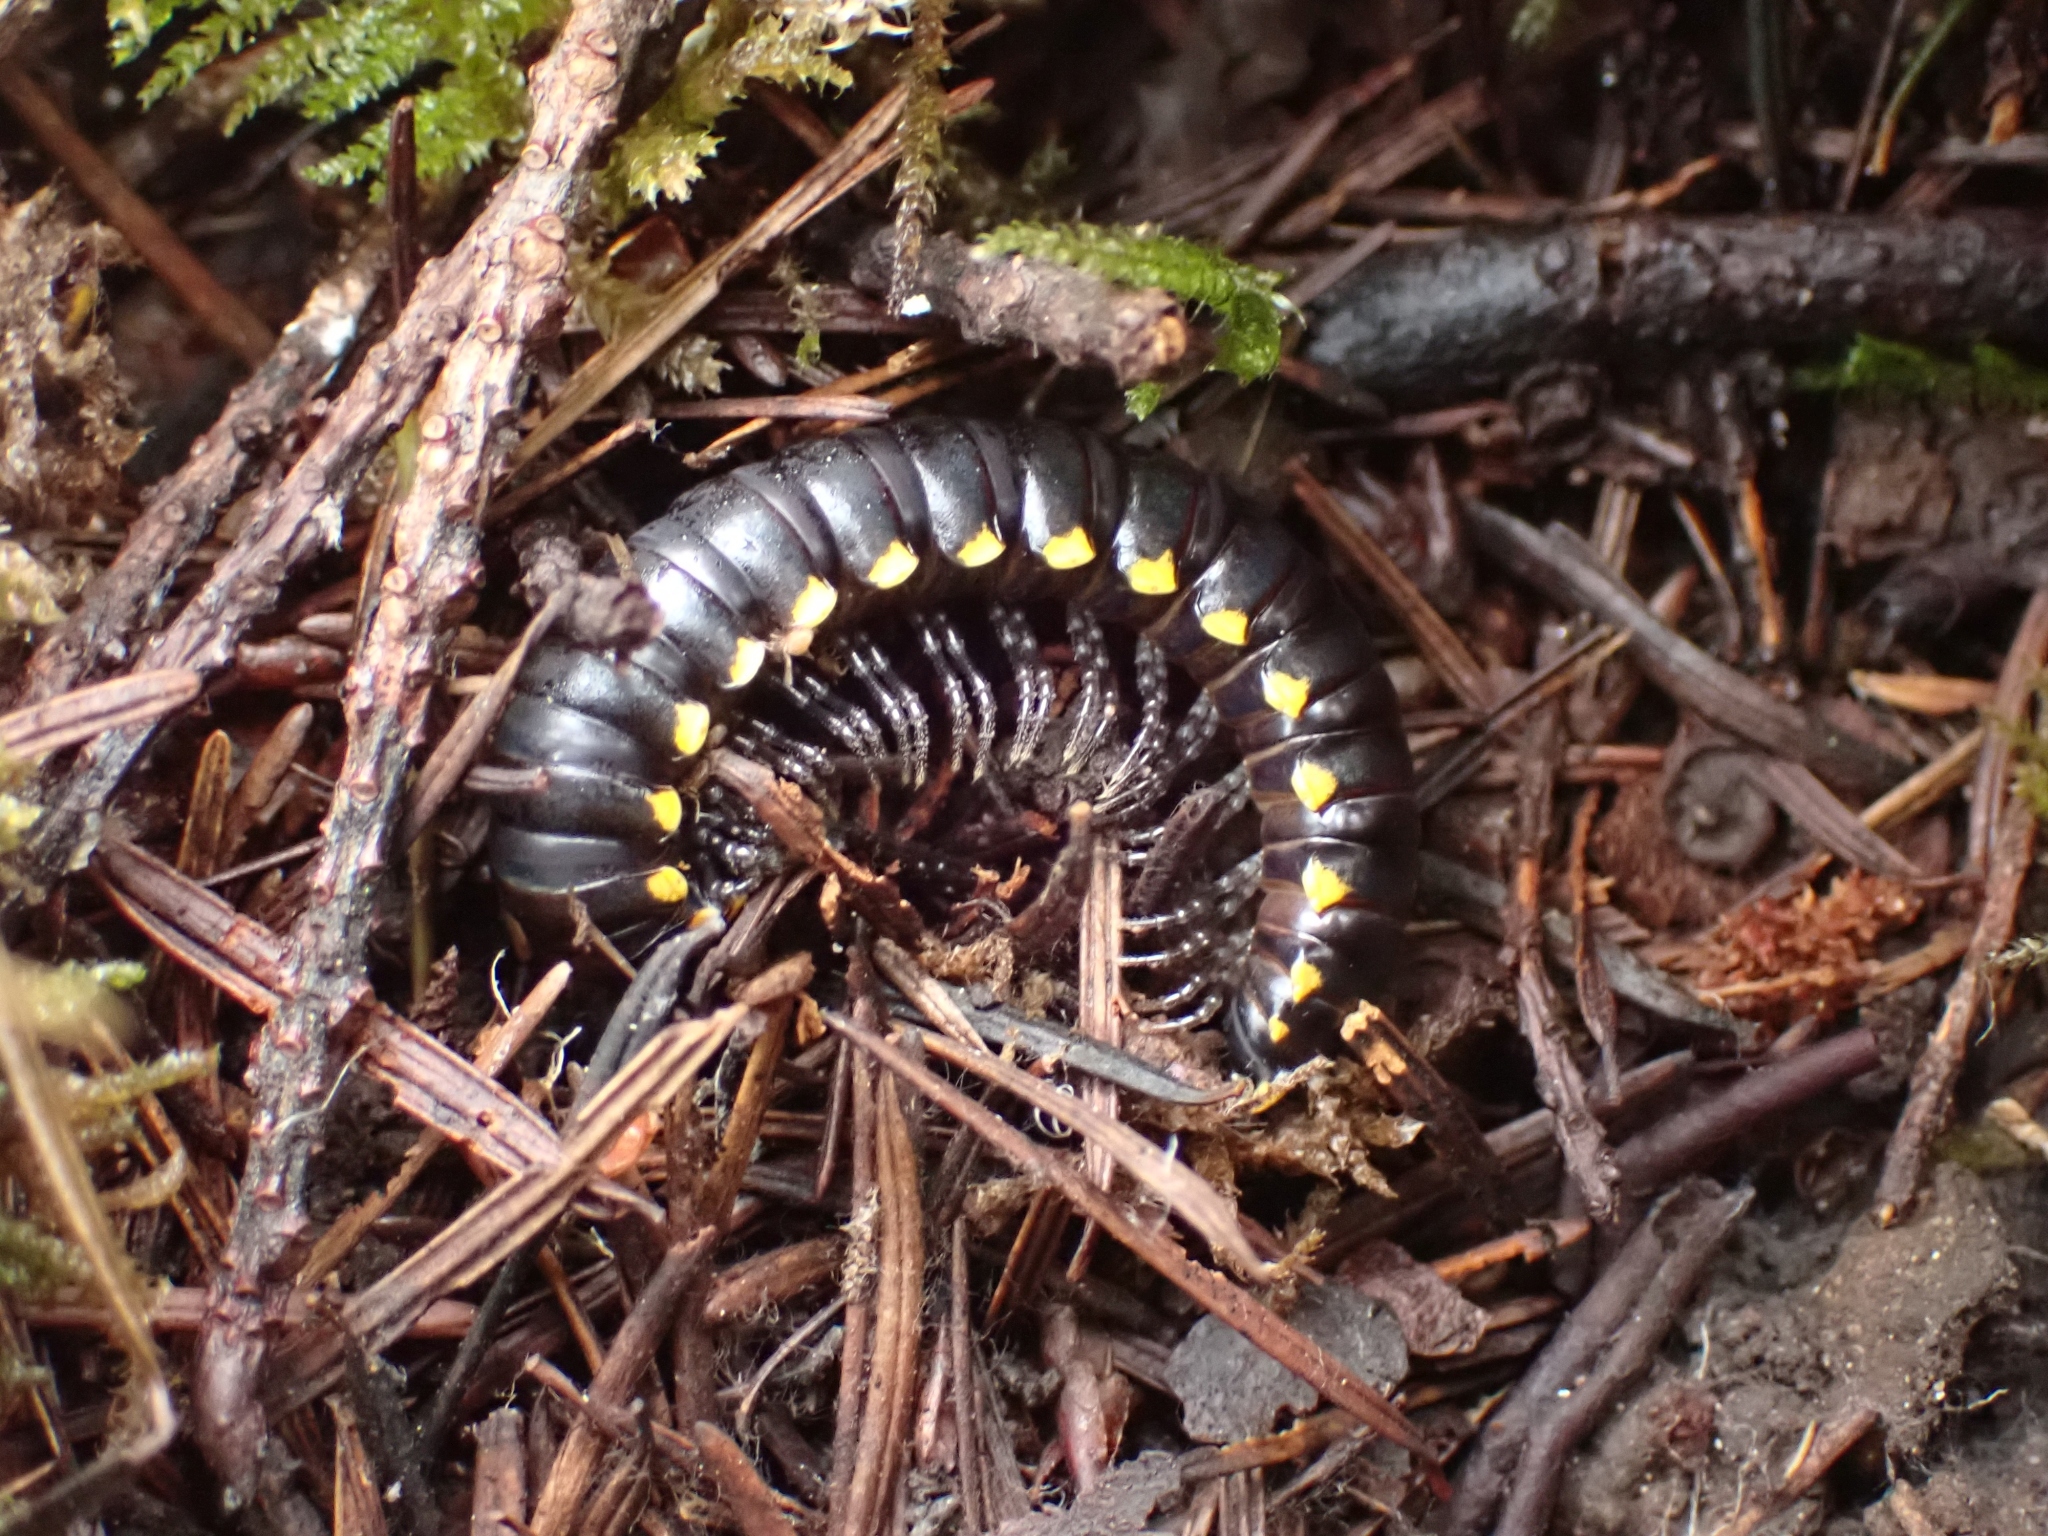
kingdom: Animalia
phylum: Arthropoda
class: Diplopoda
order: Polydesmida
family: Xystodesmidae
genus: Harpaphe
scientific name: Harpaphe haydeniana
